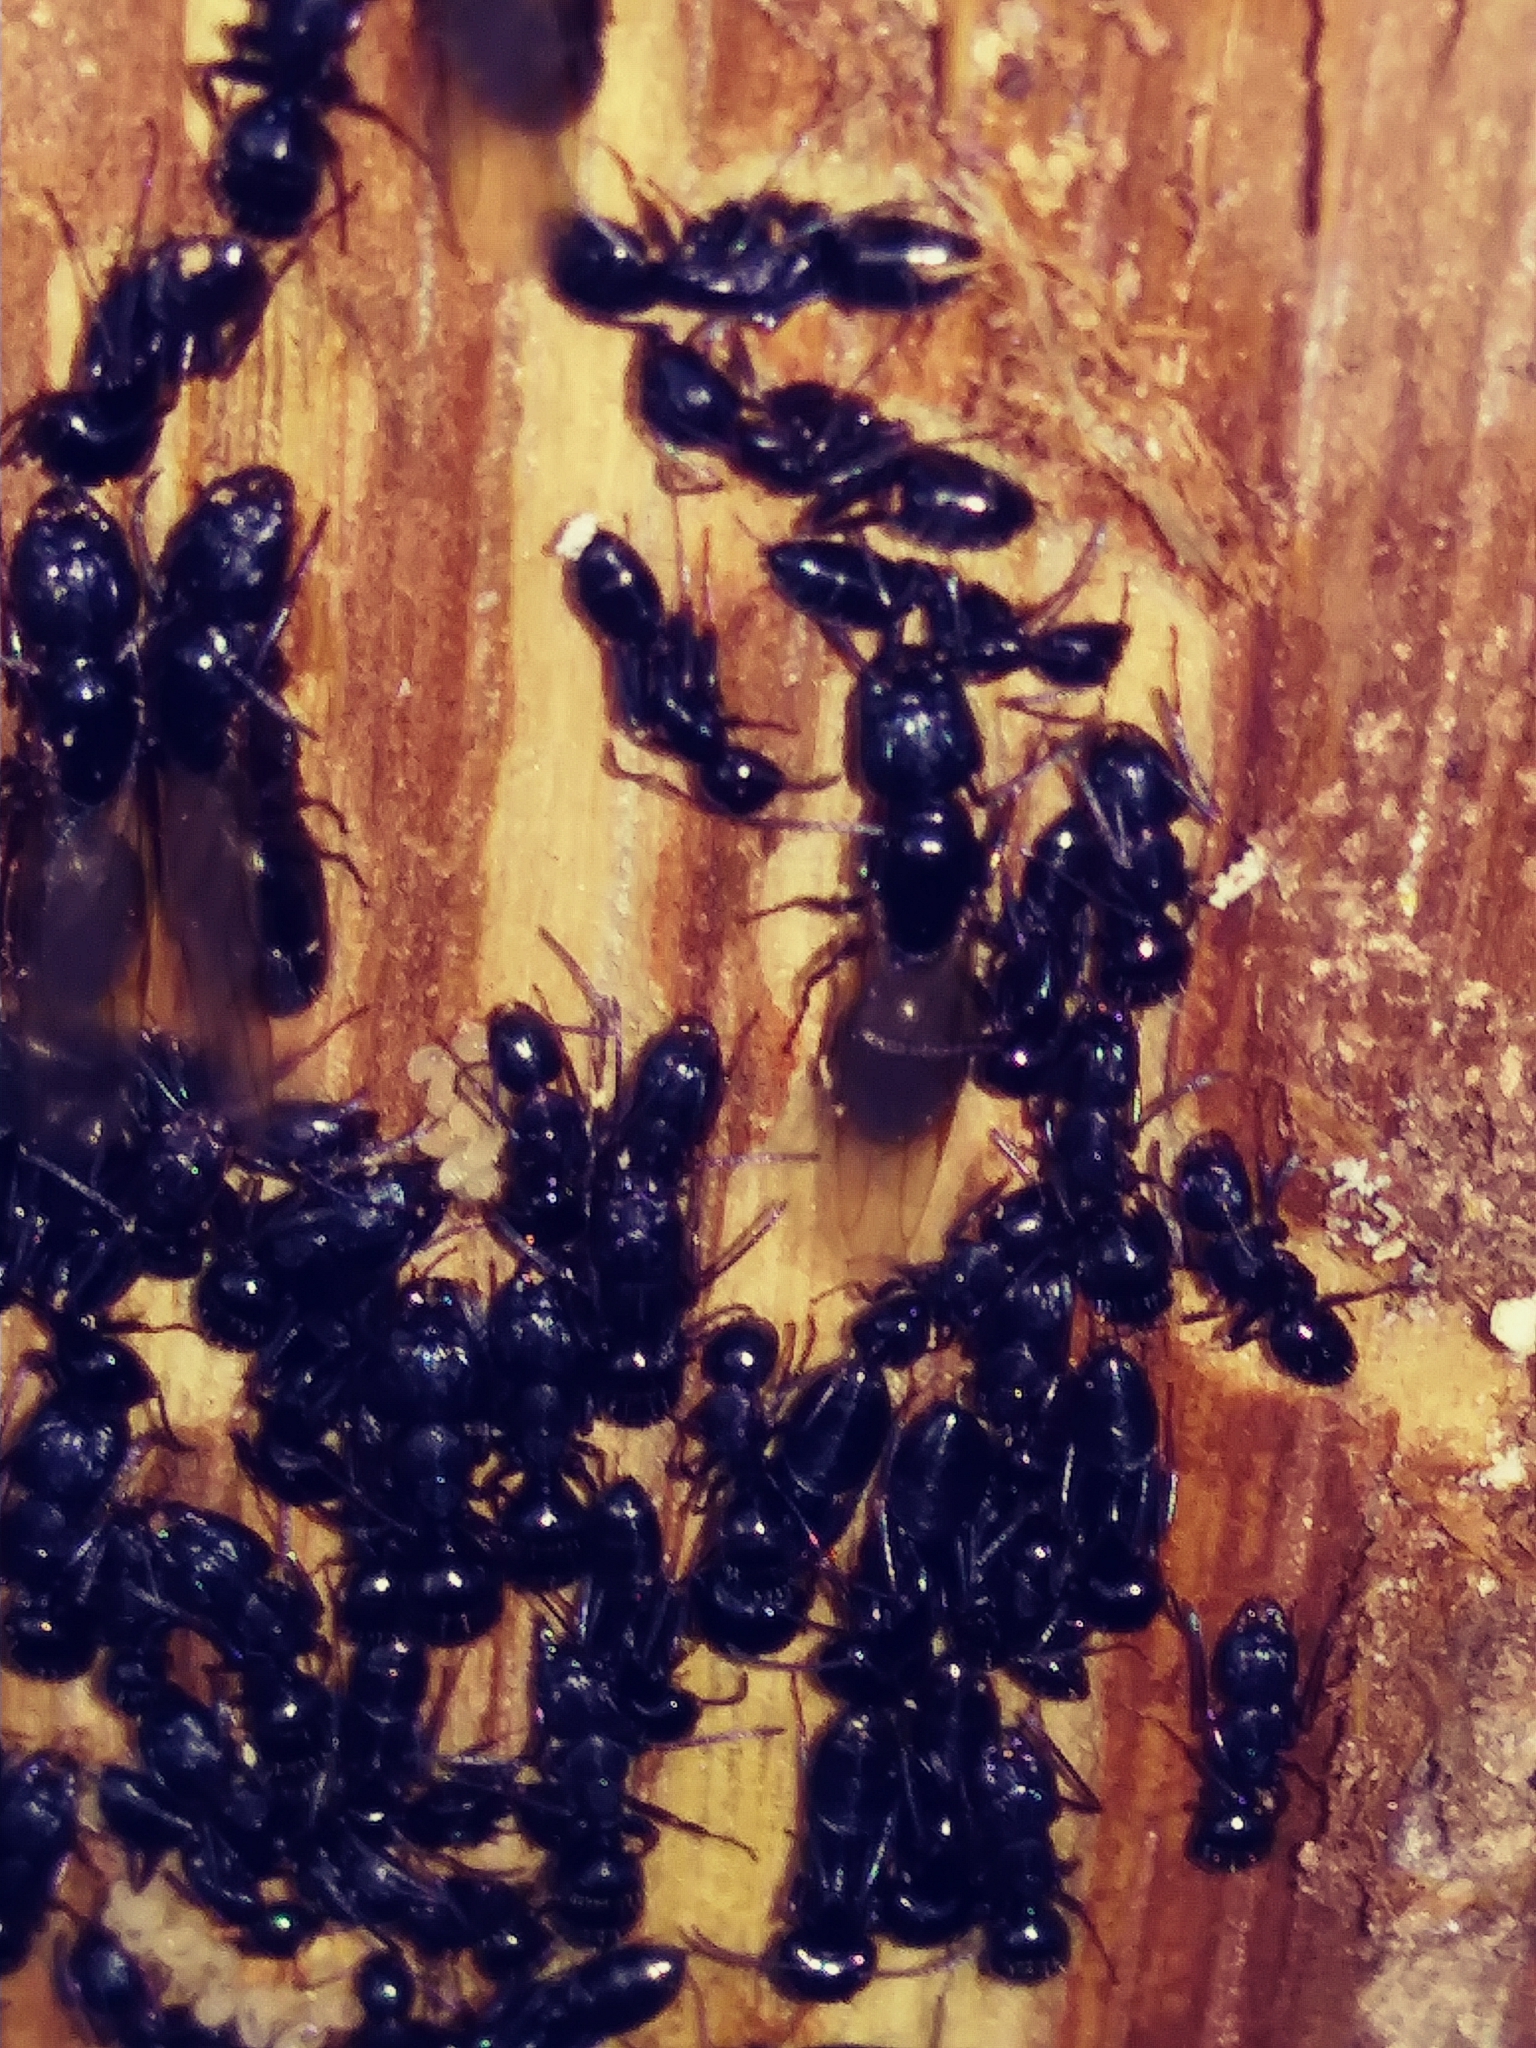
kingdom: Animalia
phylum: Arthropoda
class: Insecta
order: Hymenoptera
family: Formicidae
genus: Camponotus
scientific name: Camponotus pennsylvanicus
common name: Black carpenter ant
